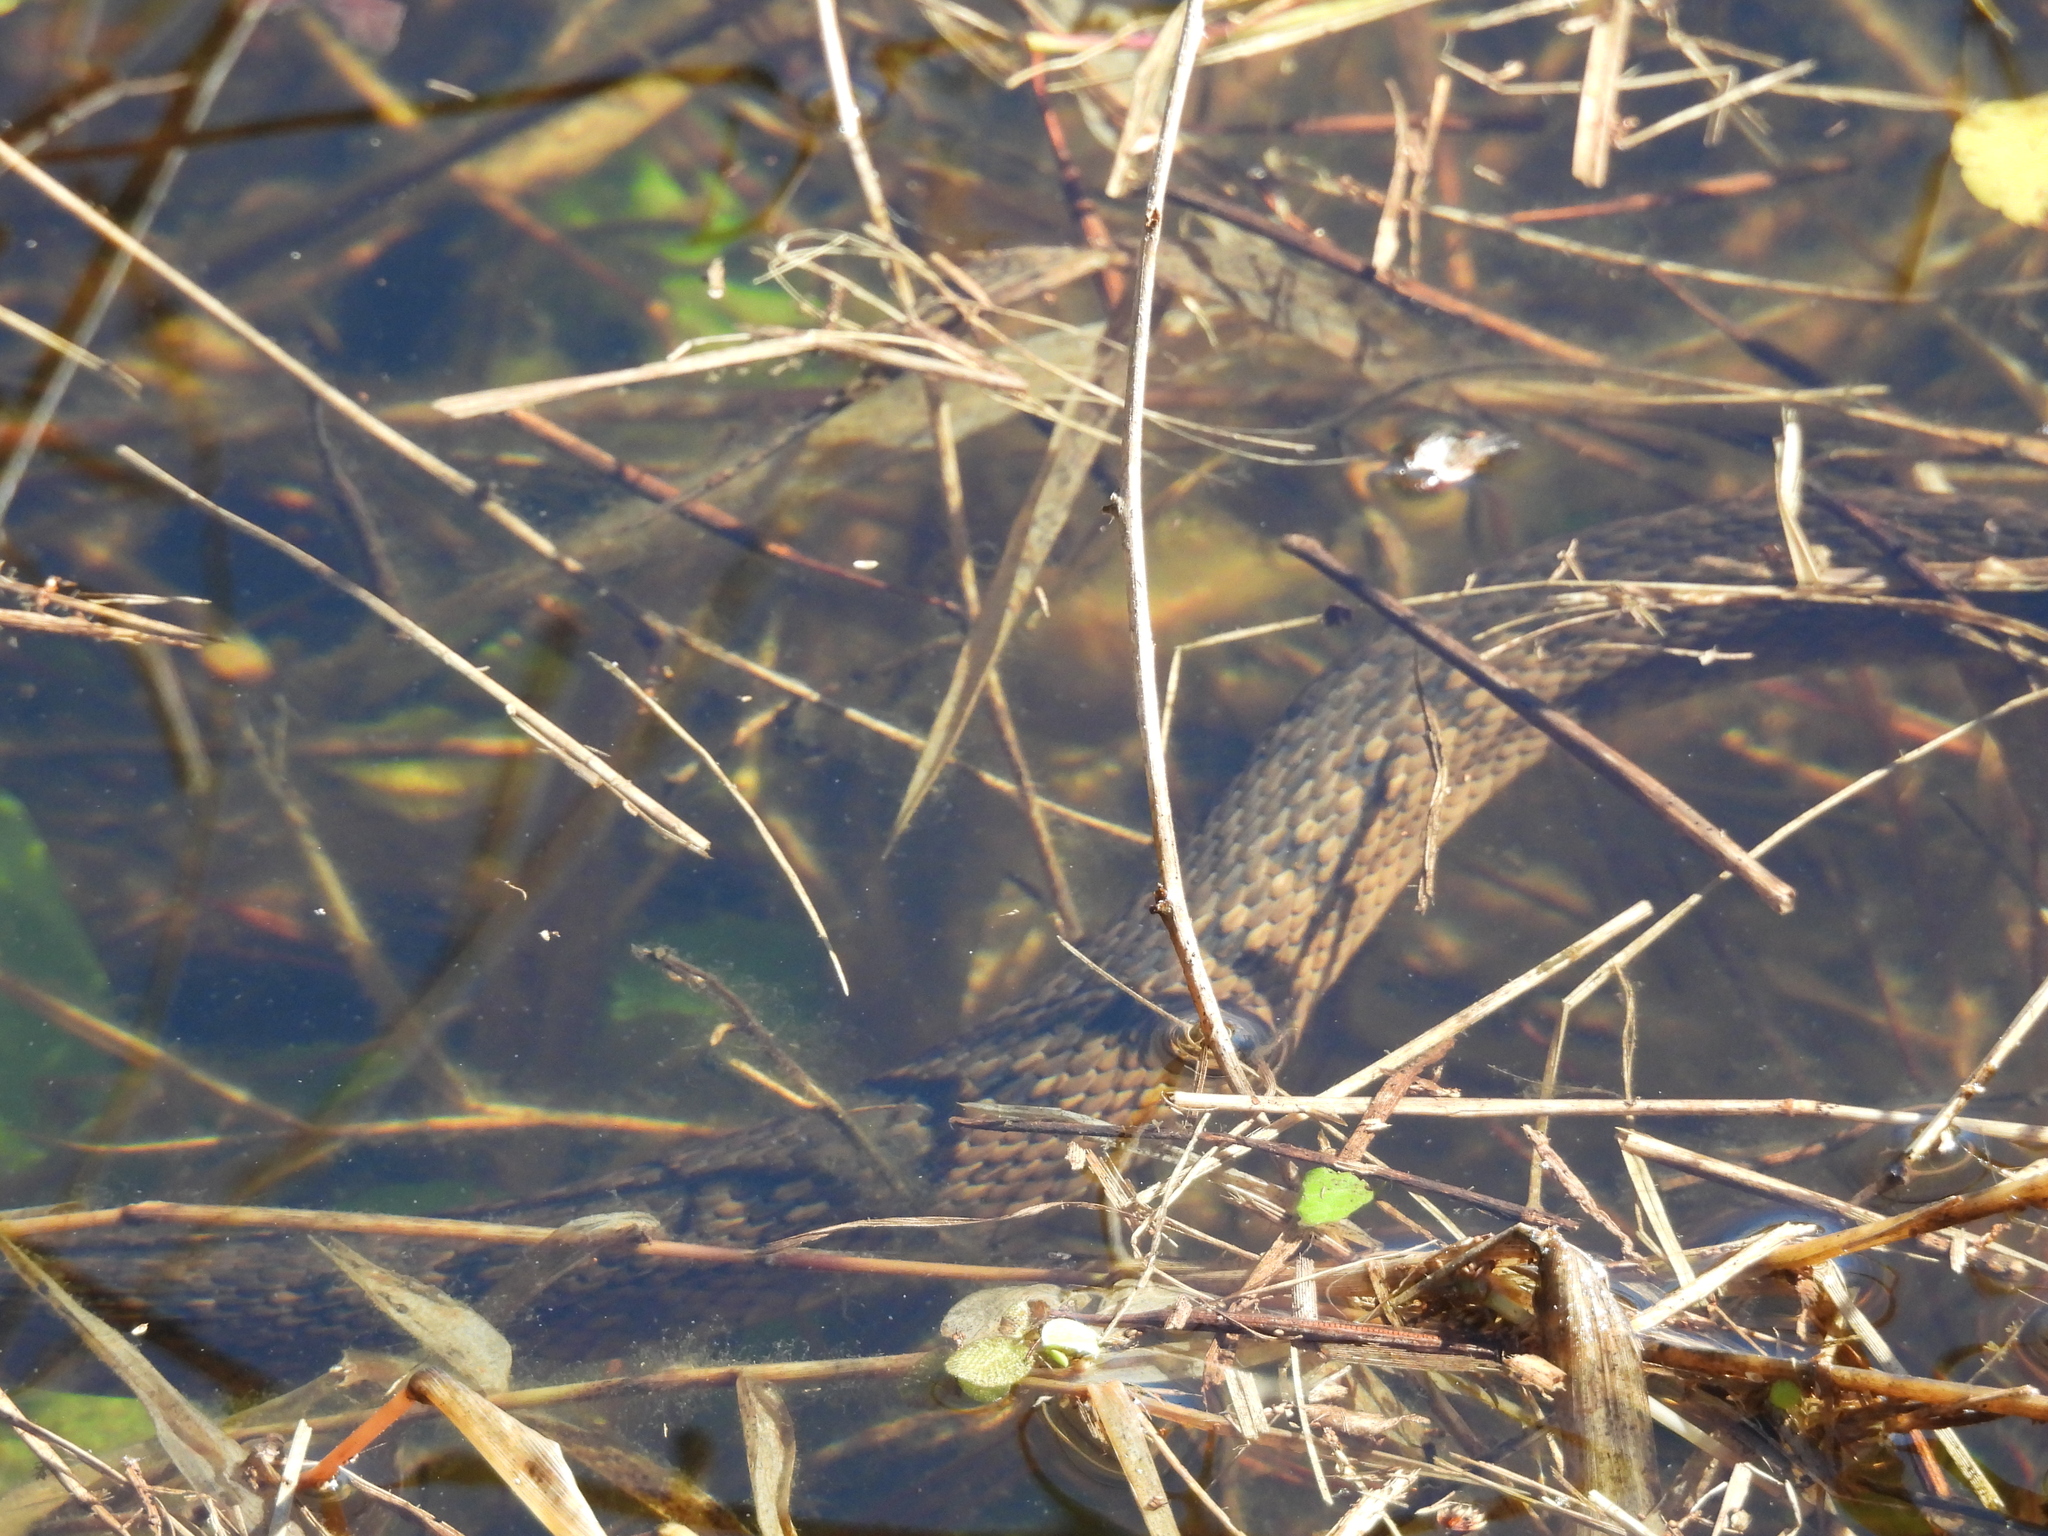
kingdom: Animalia
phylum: Chordata
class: Squamata
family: Colubridae
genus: Nerodia
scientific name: Nerodia cyclopion
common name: Mississippi green water snake
